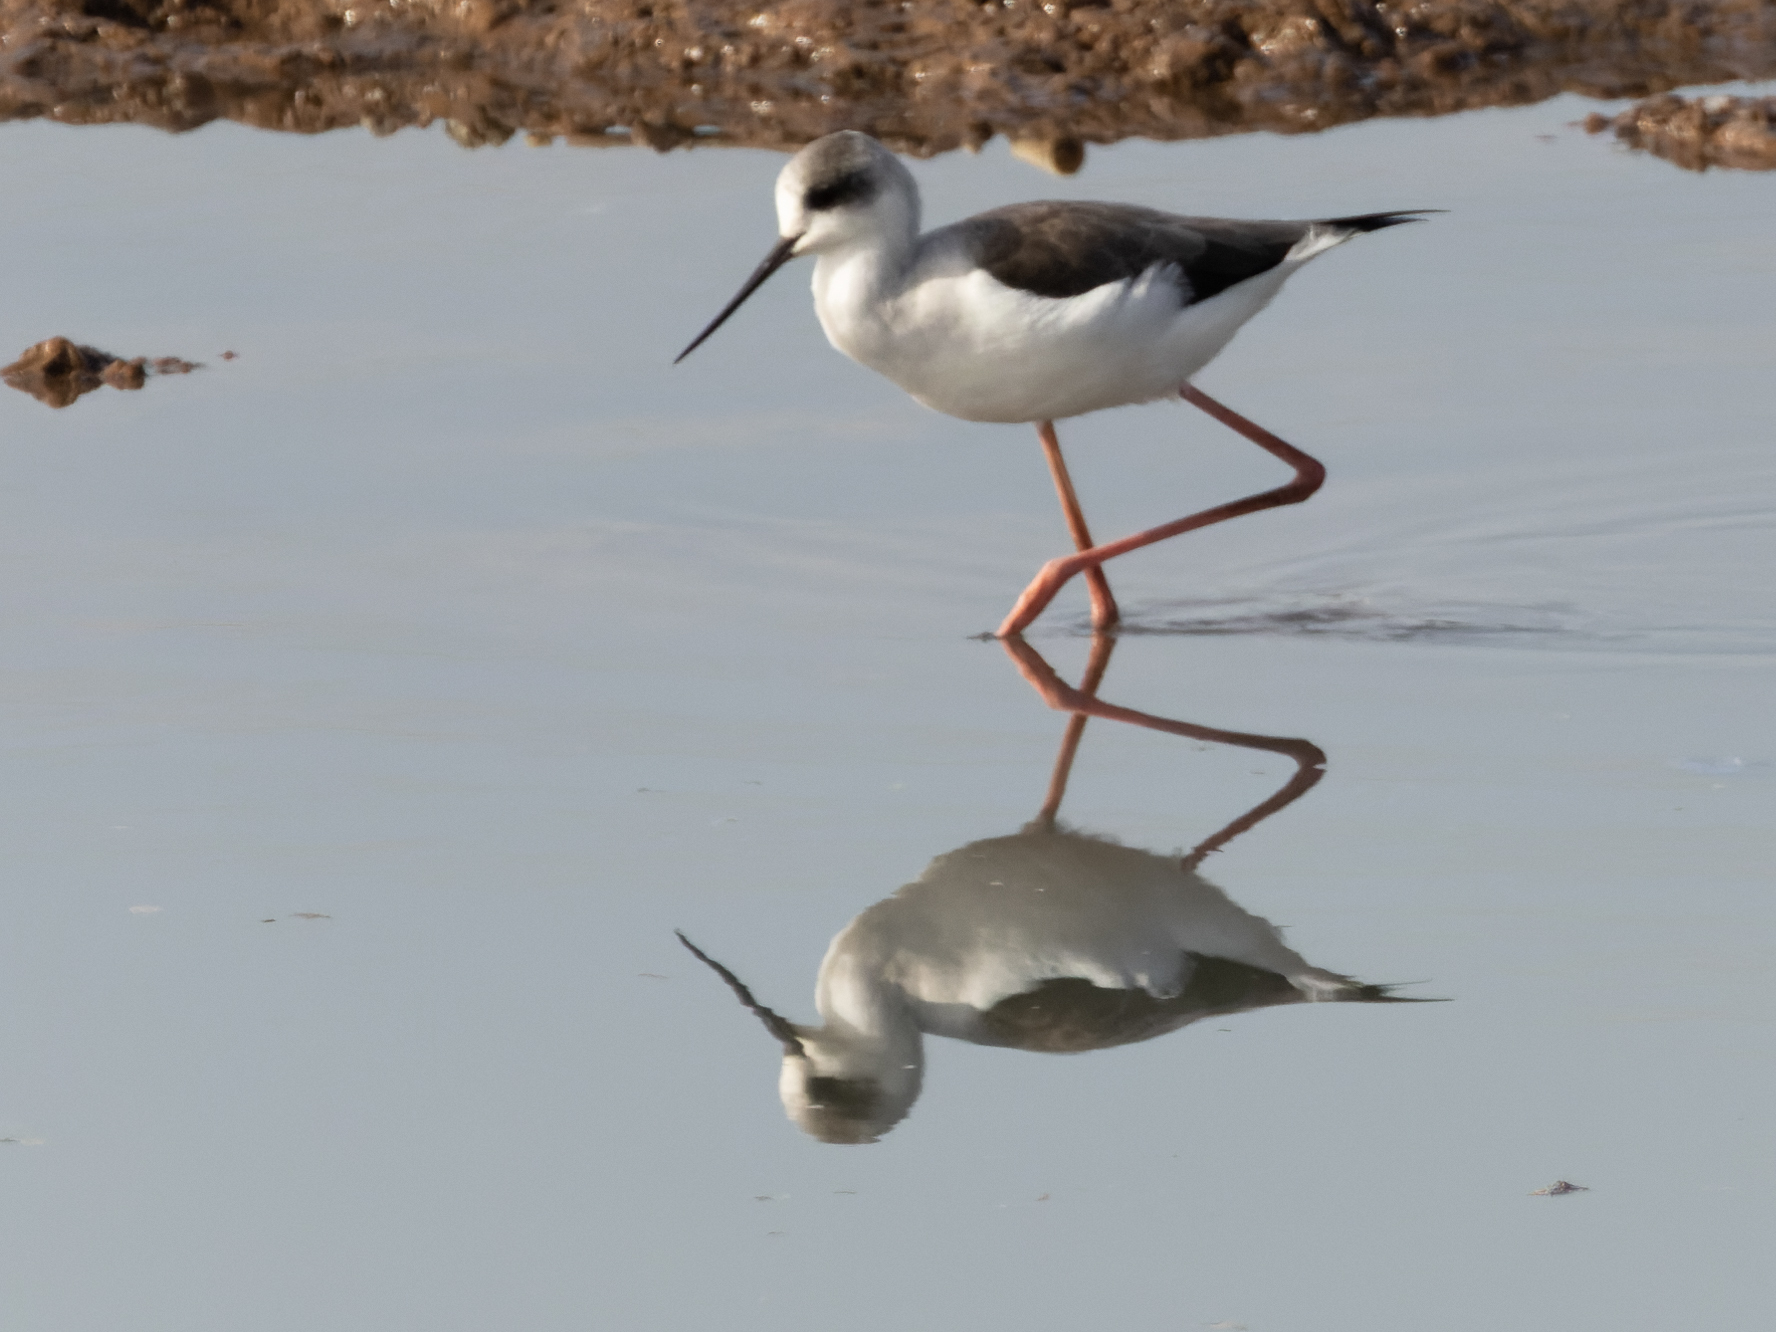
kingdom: Animalia
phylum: Chordata
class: Aves
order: Charadriiformes
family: Recurvirostridae
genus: Himantopus
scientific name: Himantopus himantopus
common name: Black-winged stilt
